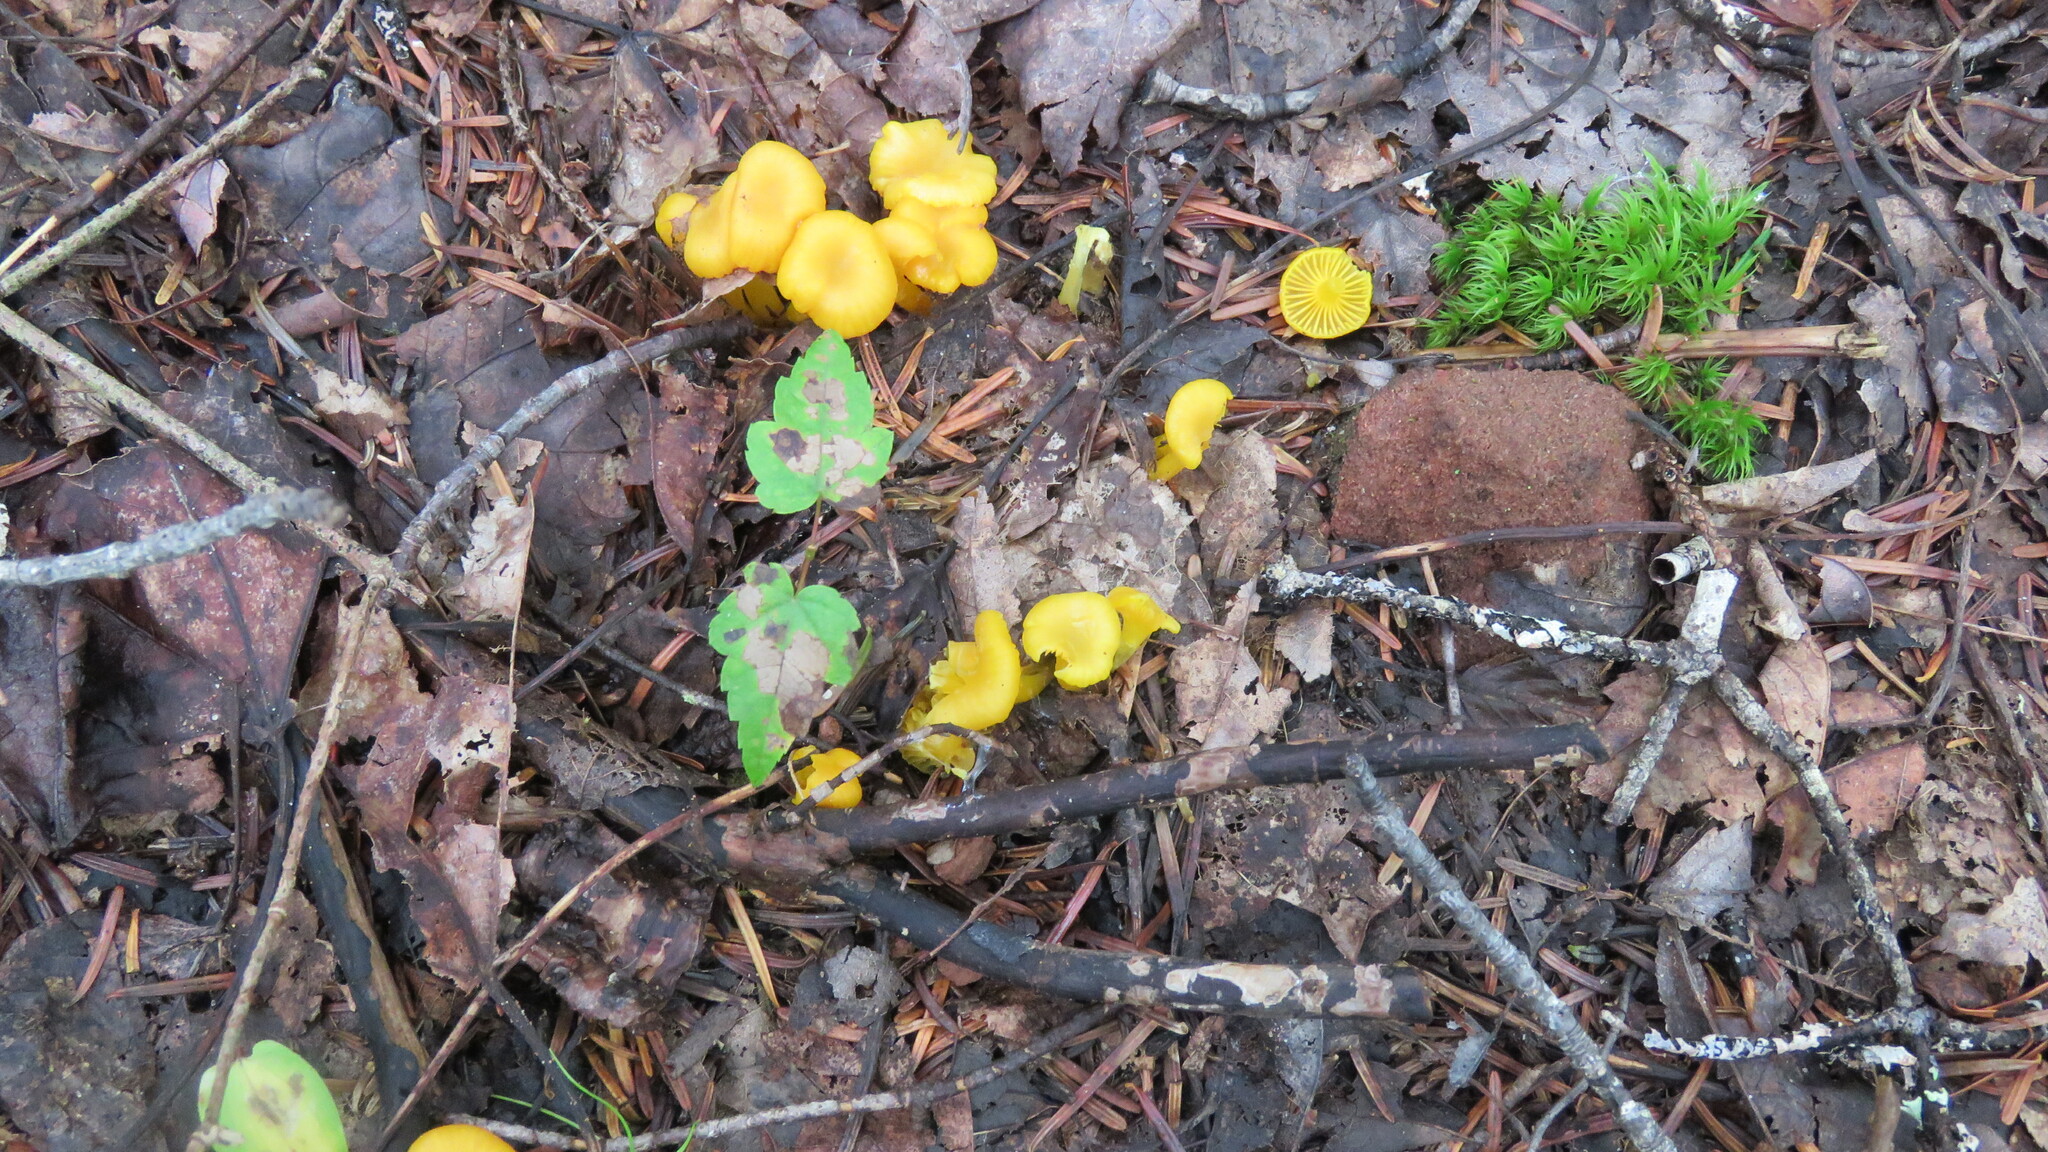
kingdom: Fungi
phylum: Basidiomycota
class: Agaricomycetes
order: Agaricales
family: Hygrophoraceae
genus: Gloioxanthomyces
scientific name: Gloioxanthomyces nitidus
